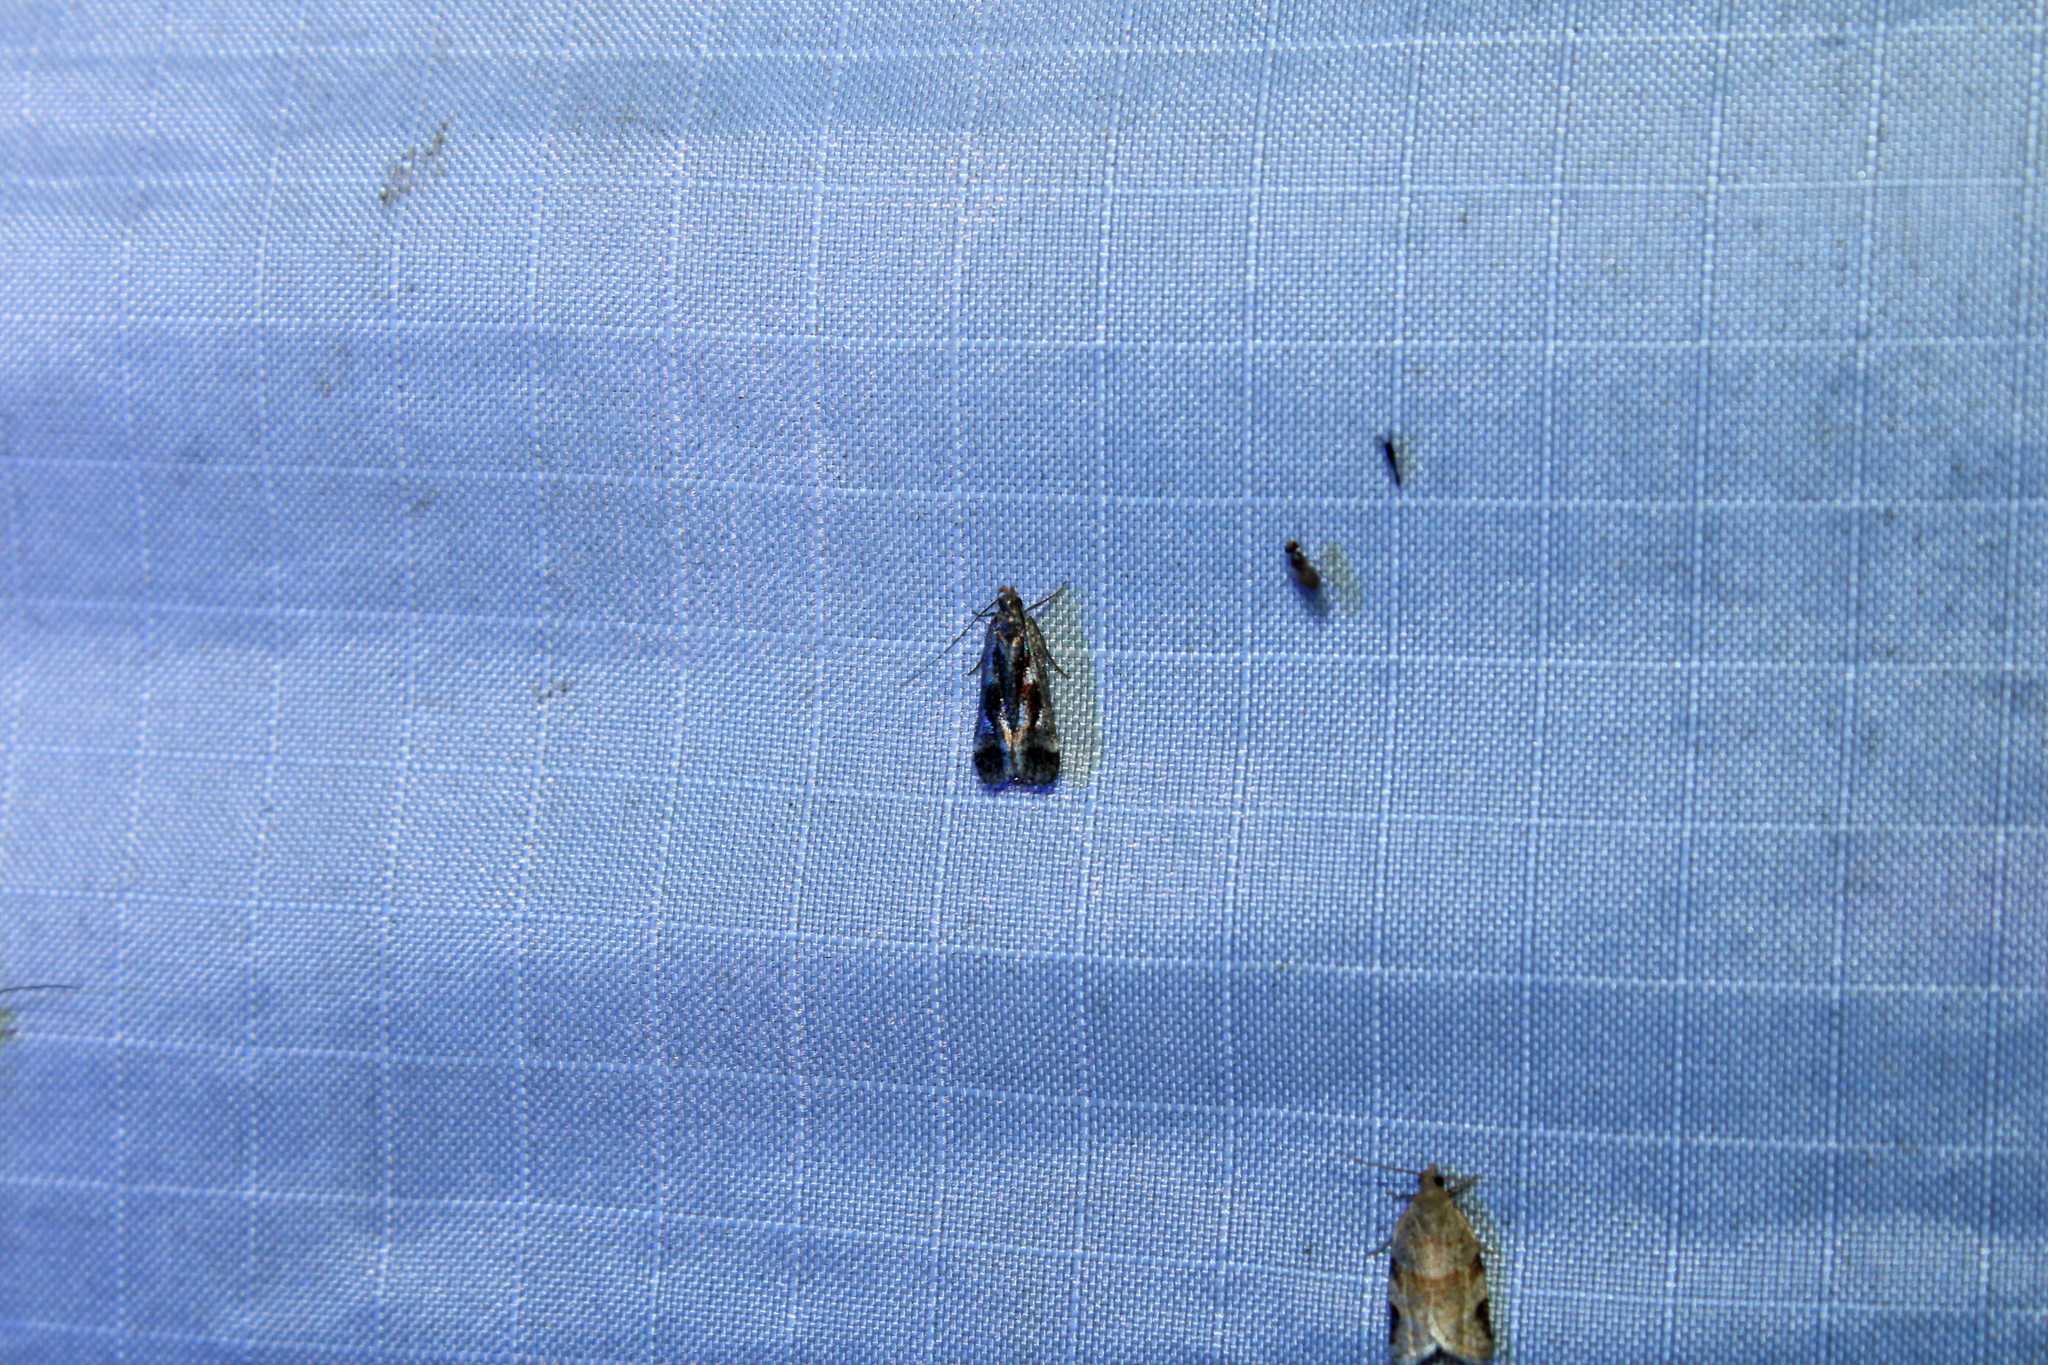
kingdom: Animalia
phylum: Arthropoda
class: Insecta
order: Lepidoptera
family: Gelechiidae
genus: Dichomeris
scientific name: Dichomeris ochripalpella
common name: Shining dichomeris moth
